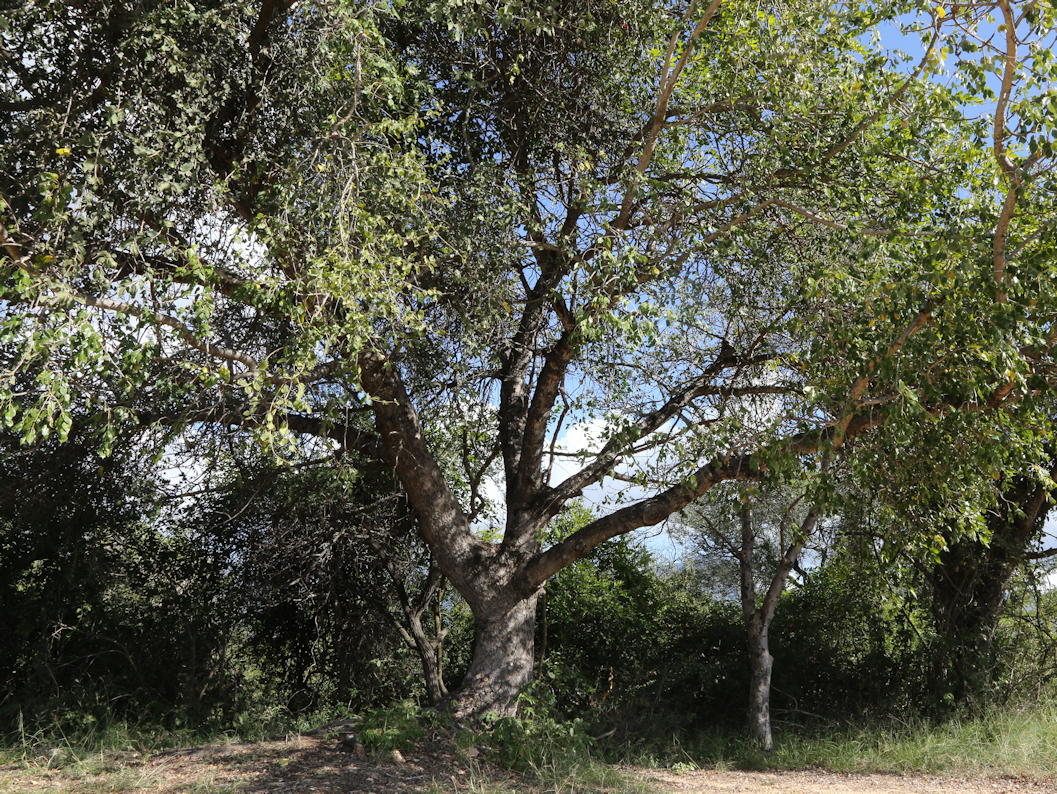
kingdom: Plantae
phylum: Tracheophyta
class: Magnoliopsida
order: Sapindales
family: Anacardiaceae
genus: Sclerocarya
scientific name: Sclerocarya birrea
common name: Marula
